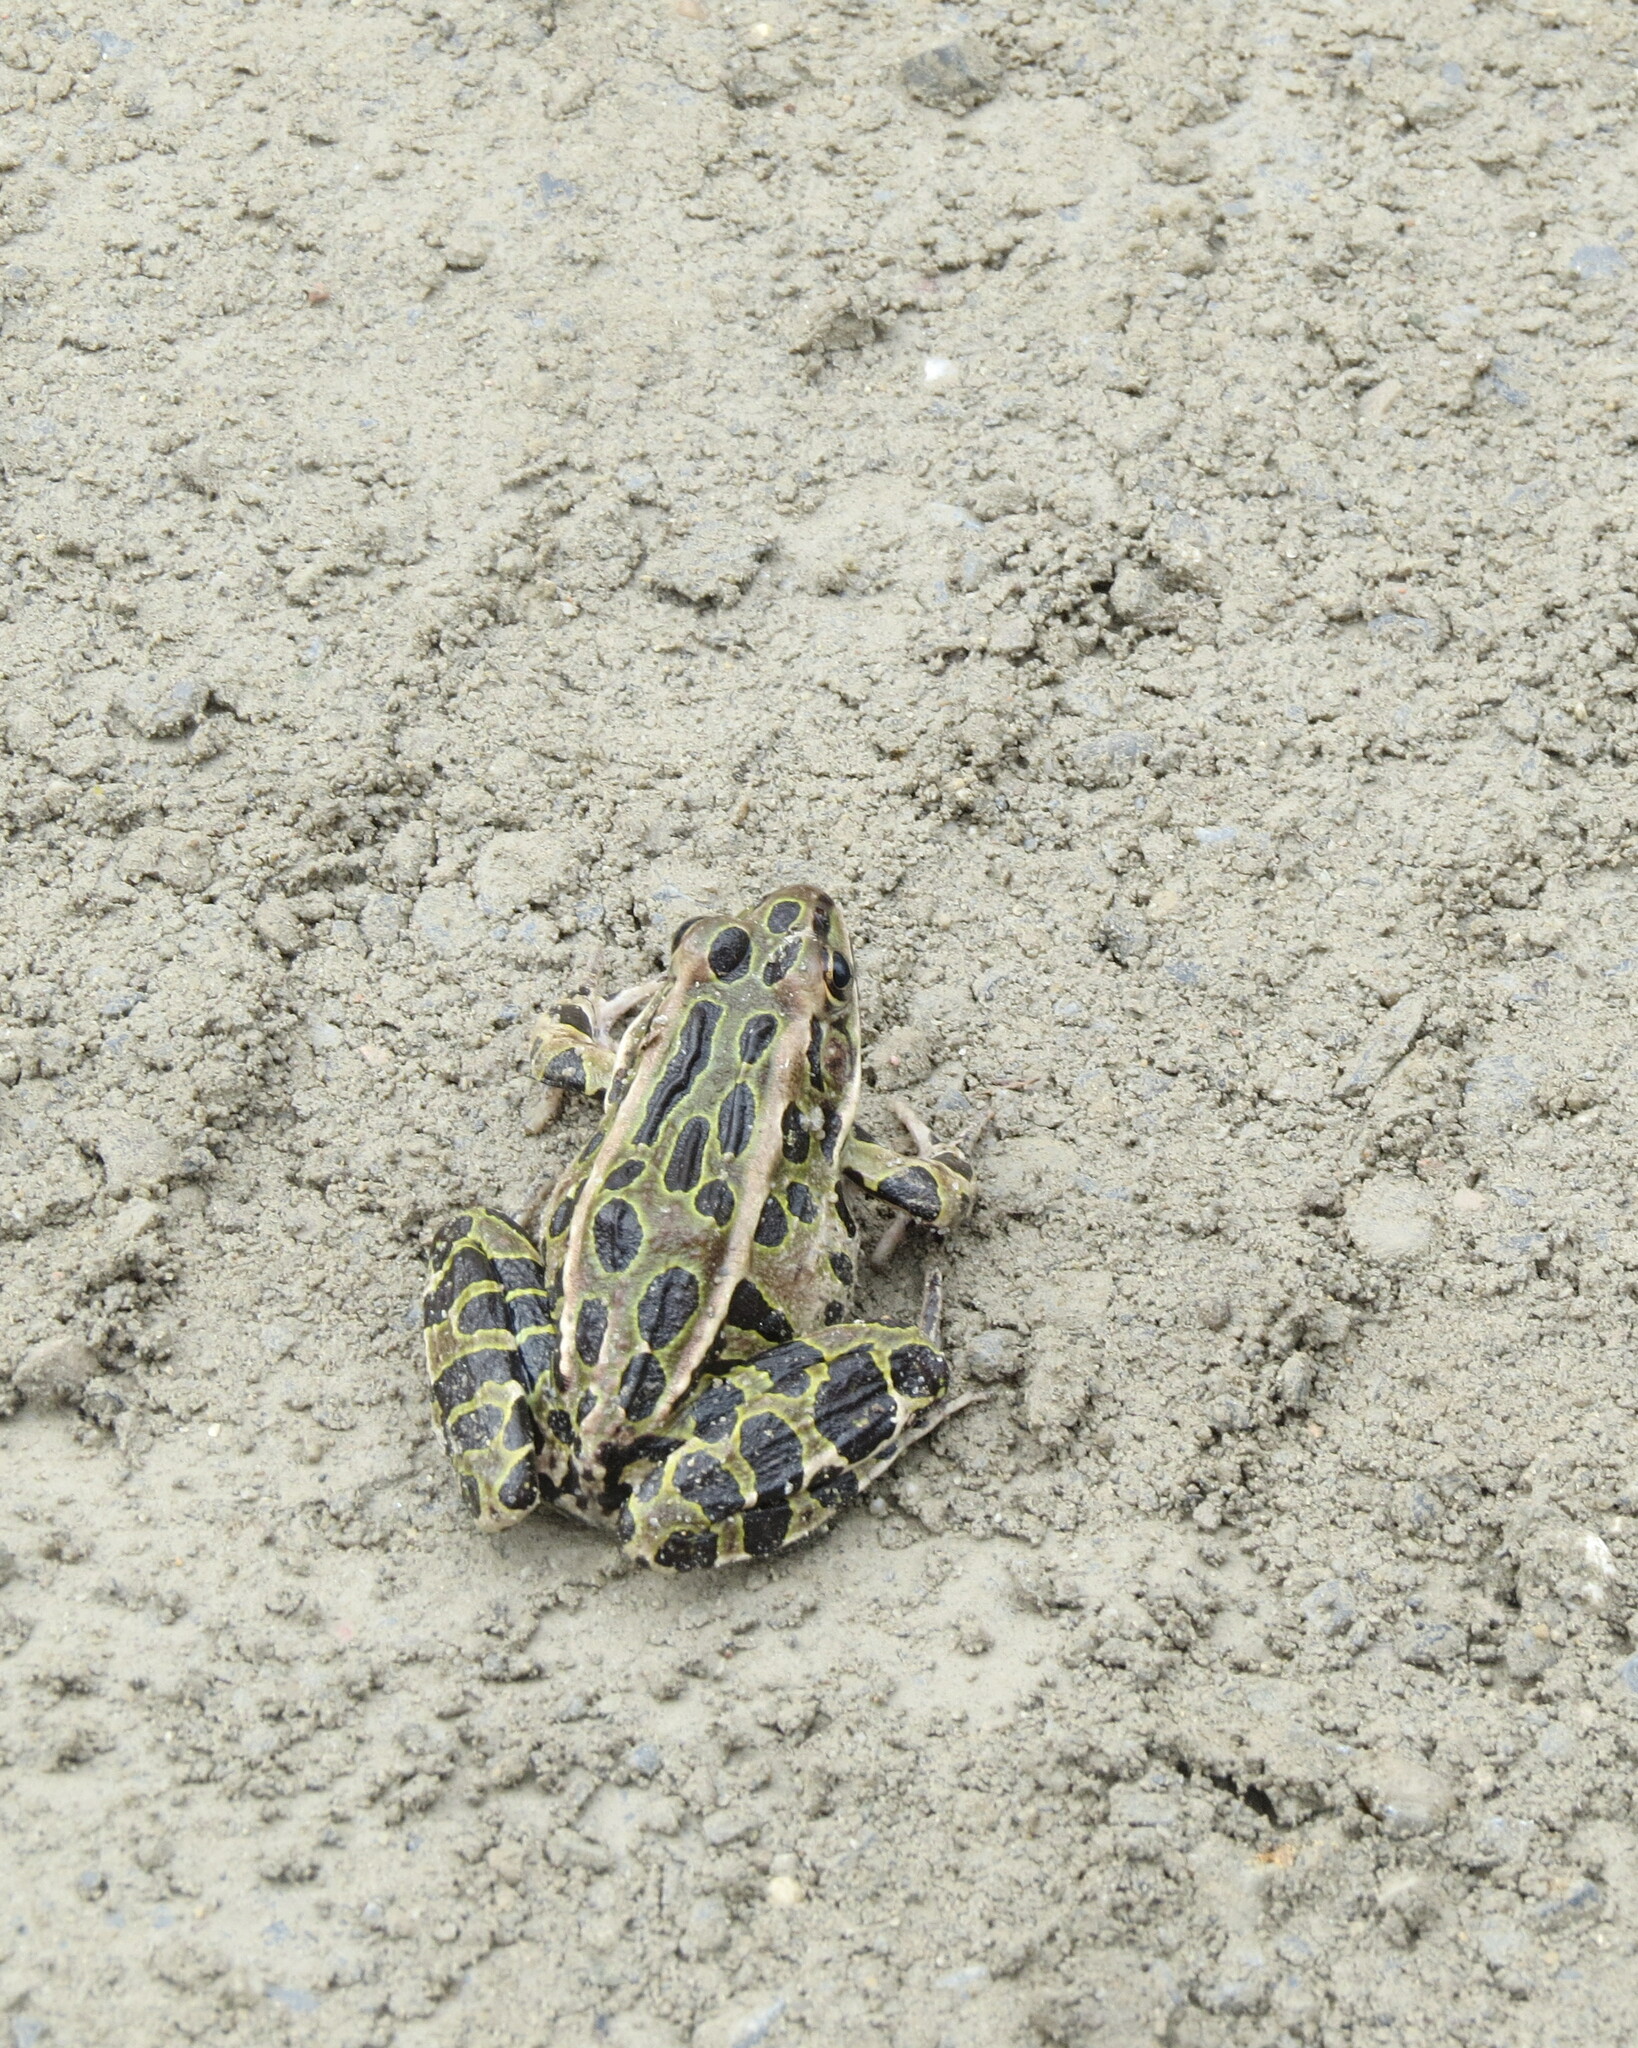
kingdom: Animalia
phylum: Chordata
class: Amphibia
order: Anura
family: Ranidae
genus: Lithobates
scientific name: Lithobates pipiens
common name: Northern leopard frog
